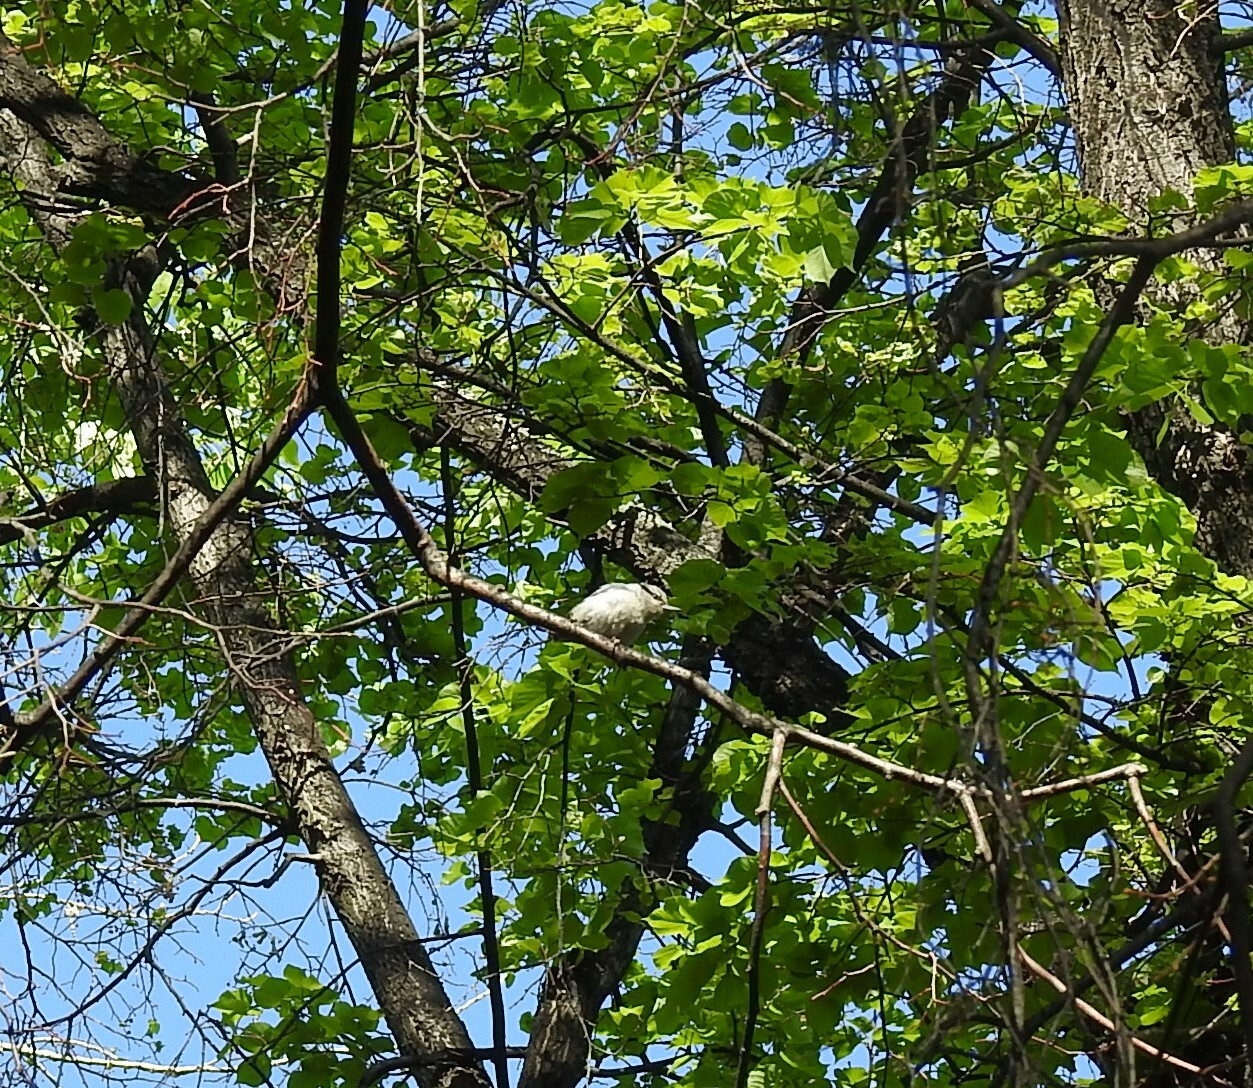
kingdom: Animalia
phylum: Chordata
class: Aves
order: Passeriformes
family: Sittidae
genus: Sitta
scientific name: Sitta europaea
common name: Eurasian nuthatch
